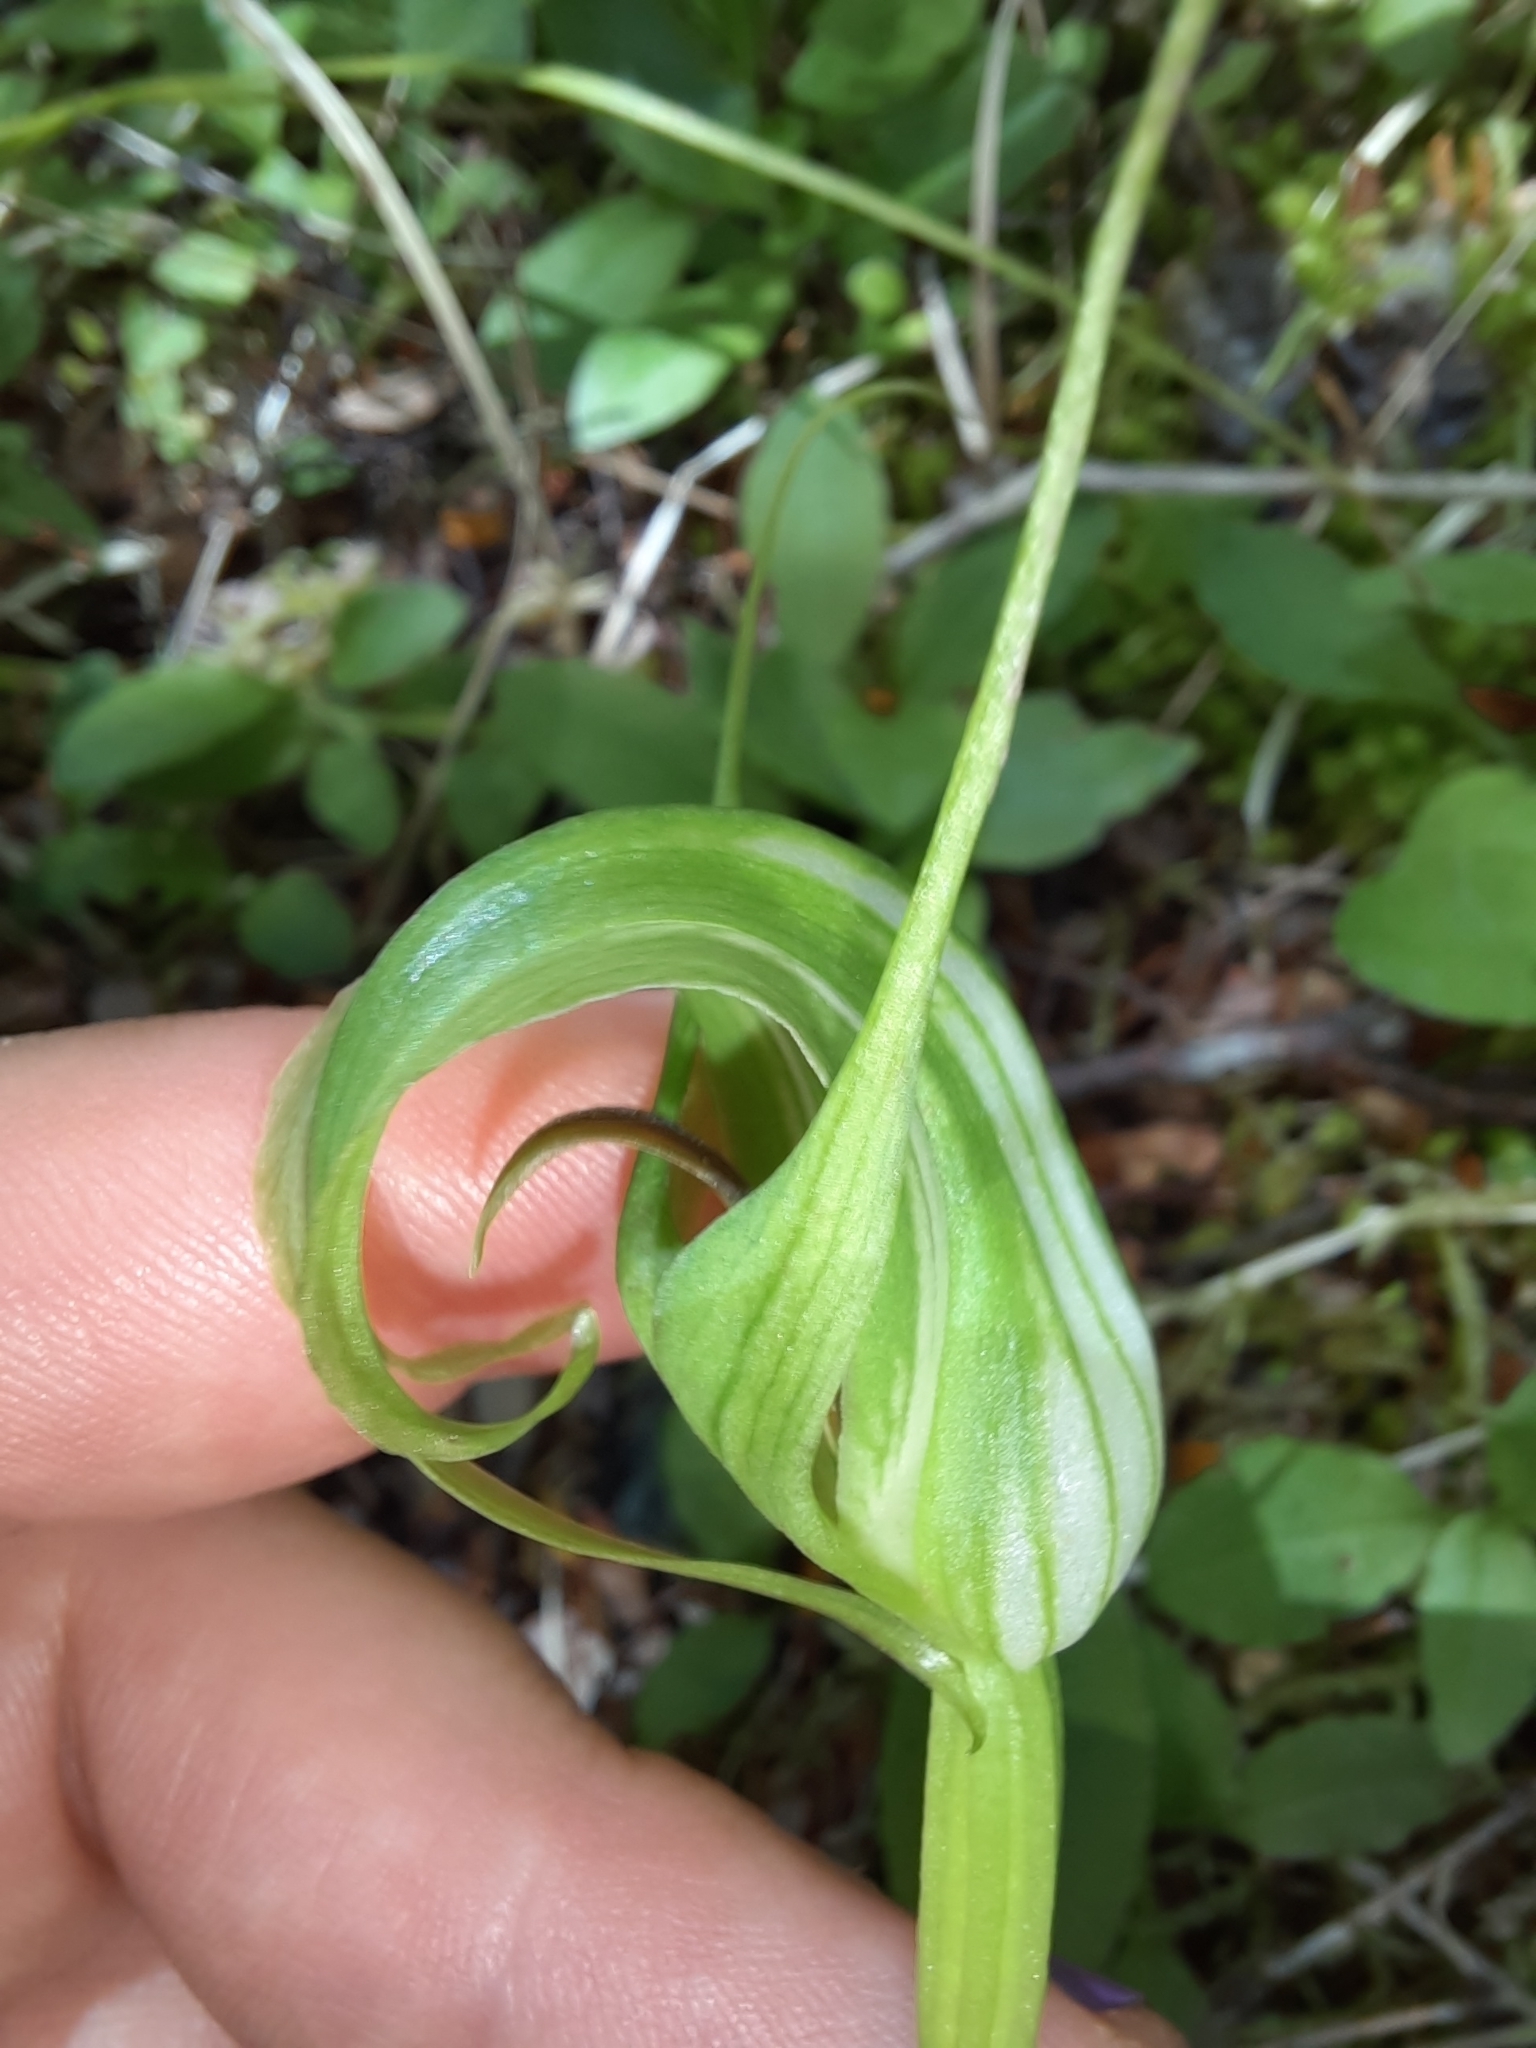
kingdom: Plantae
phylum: Tracheophyta
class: Liliopsida
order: Asparagales
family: Orchidaceae
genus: Pterostylis
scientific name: Pterostylis oliveri
